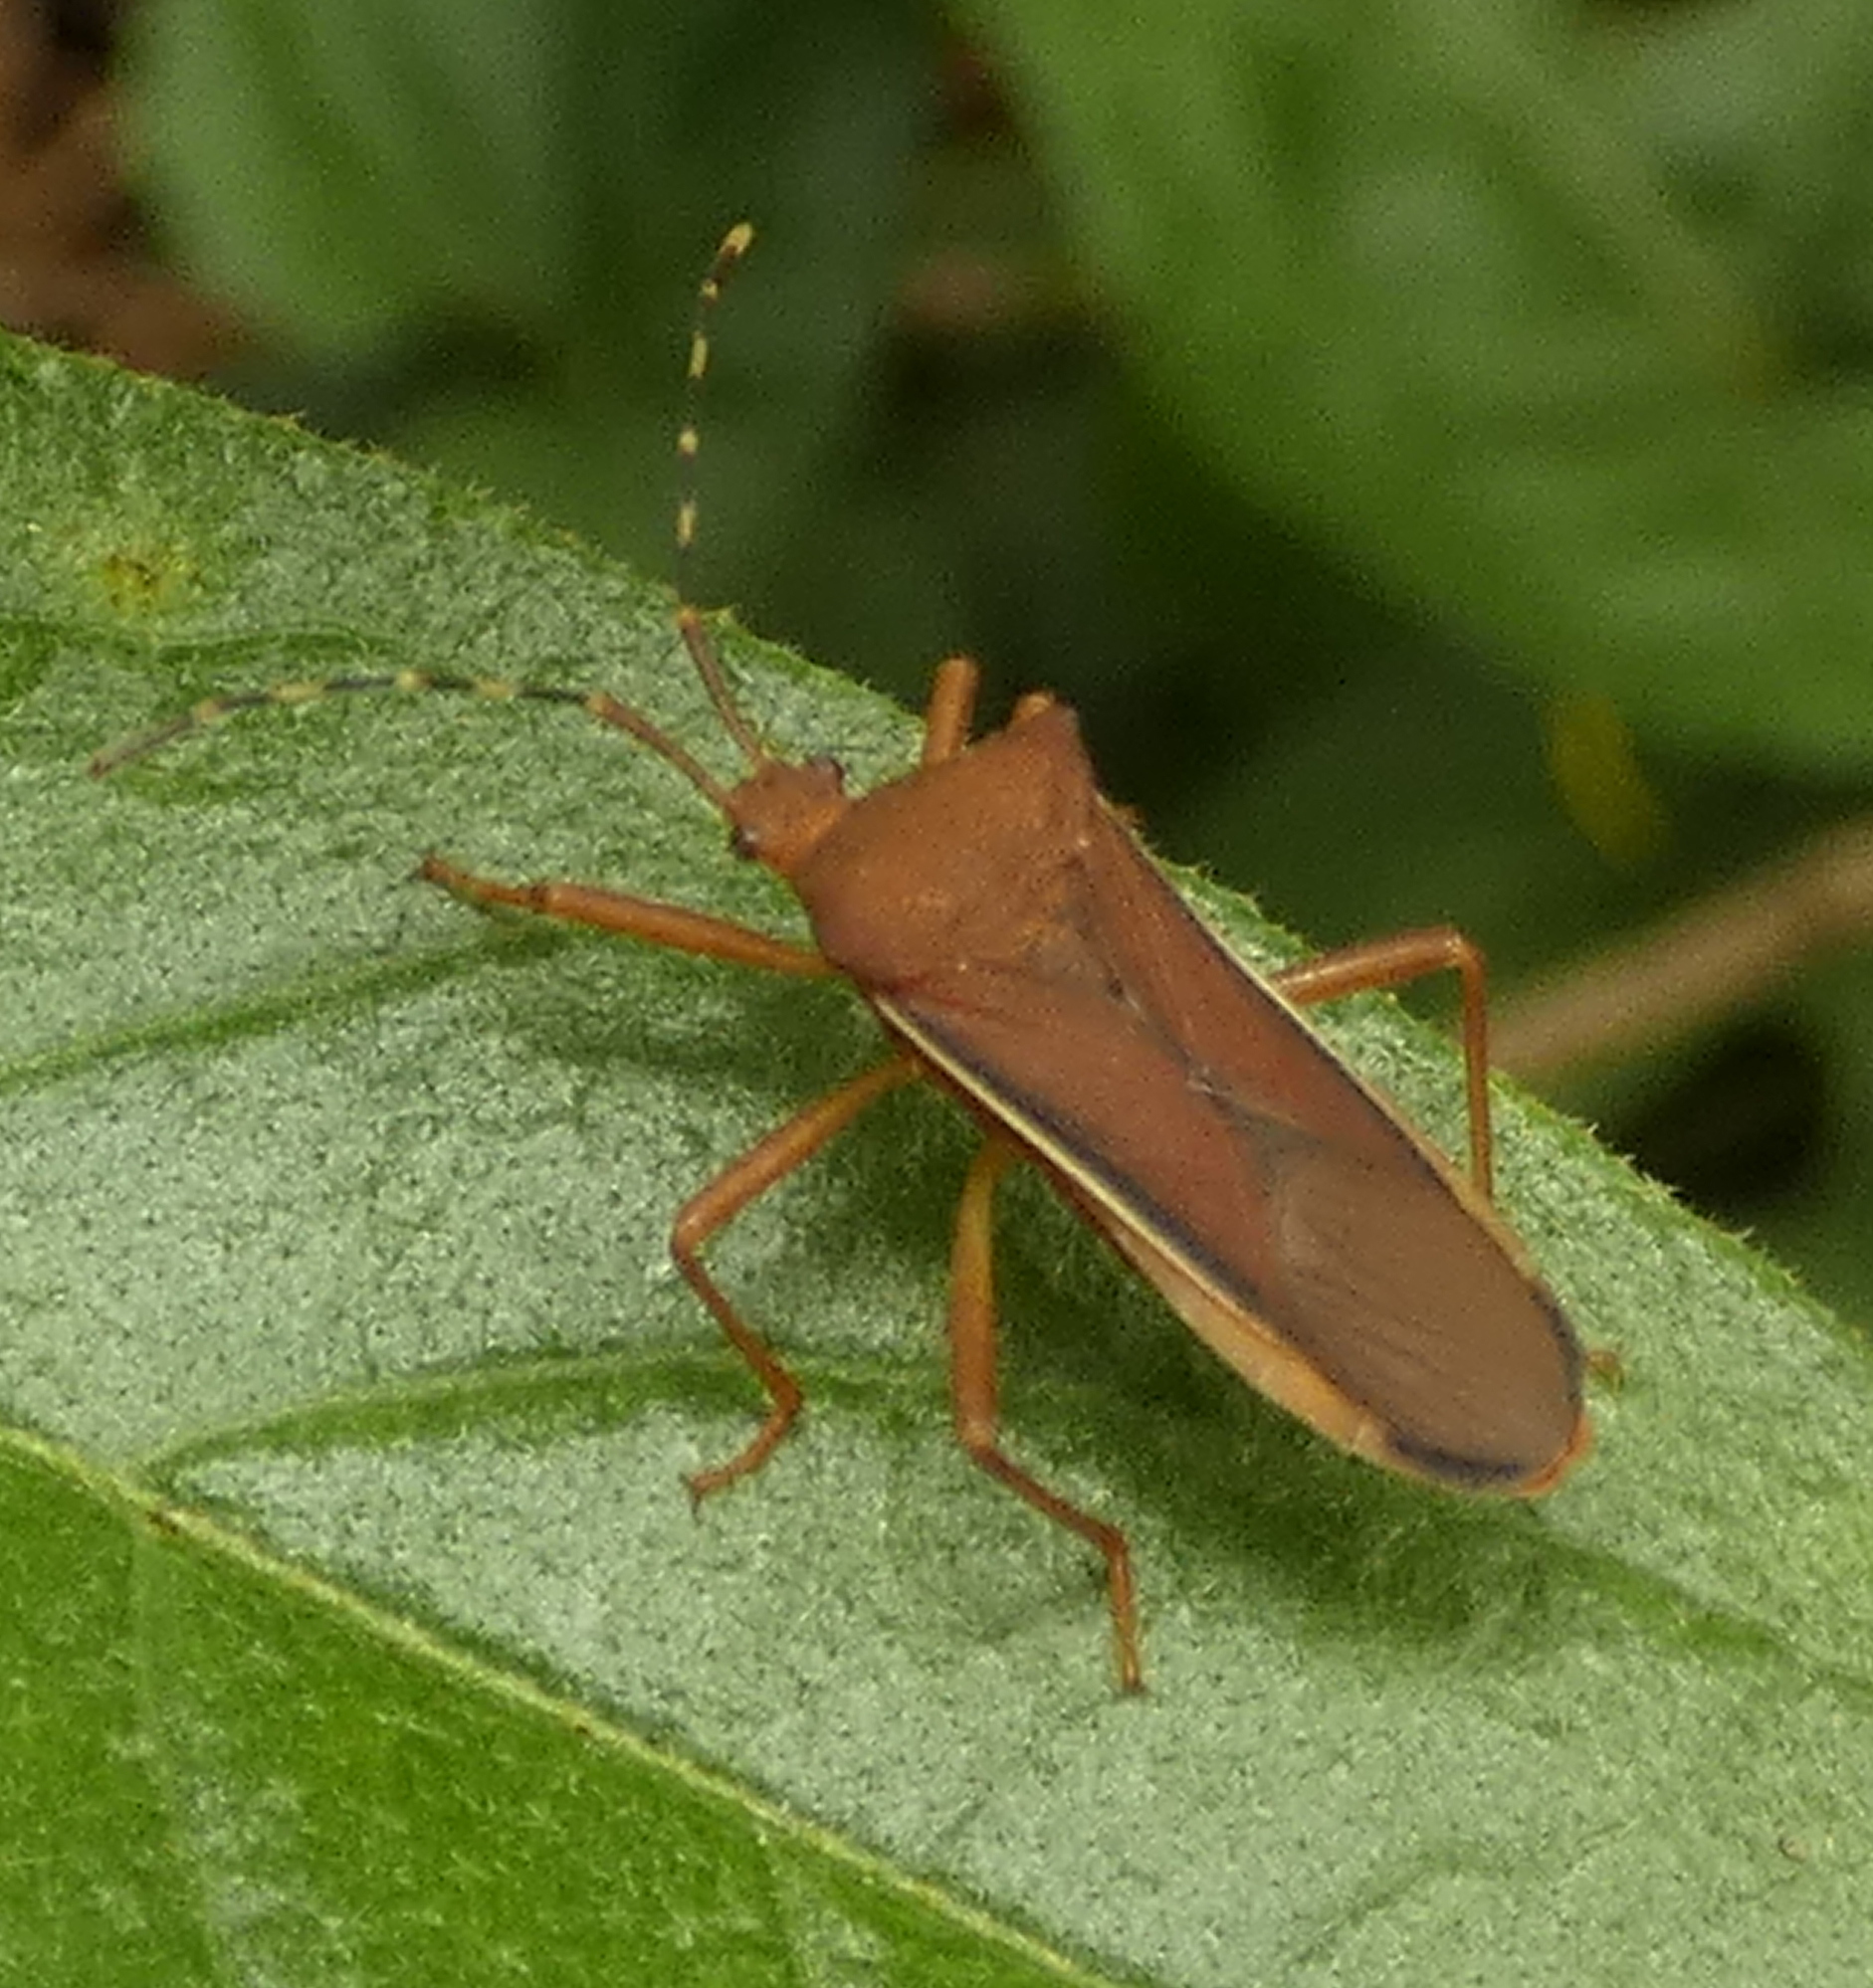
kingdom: Animalia
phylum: Arthropoda
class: Insecta
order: Hemiptera
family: Coreidae
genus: Anasa
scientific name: Anasa varicornis
